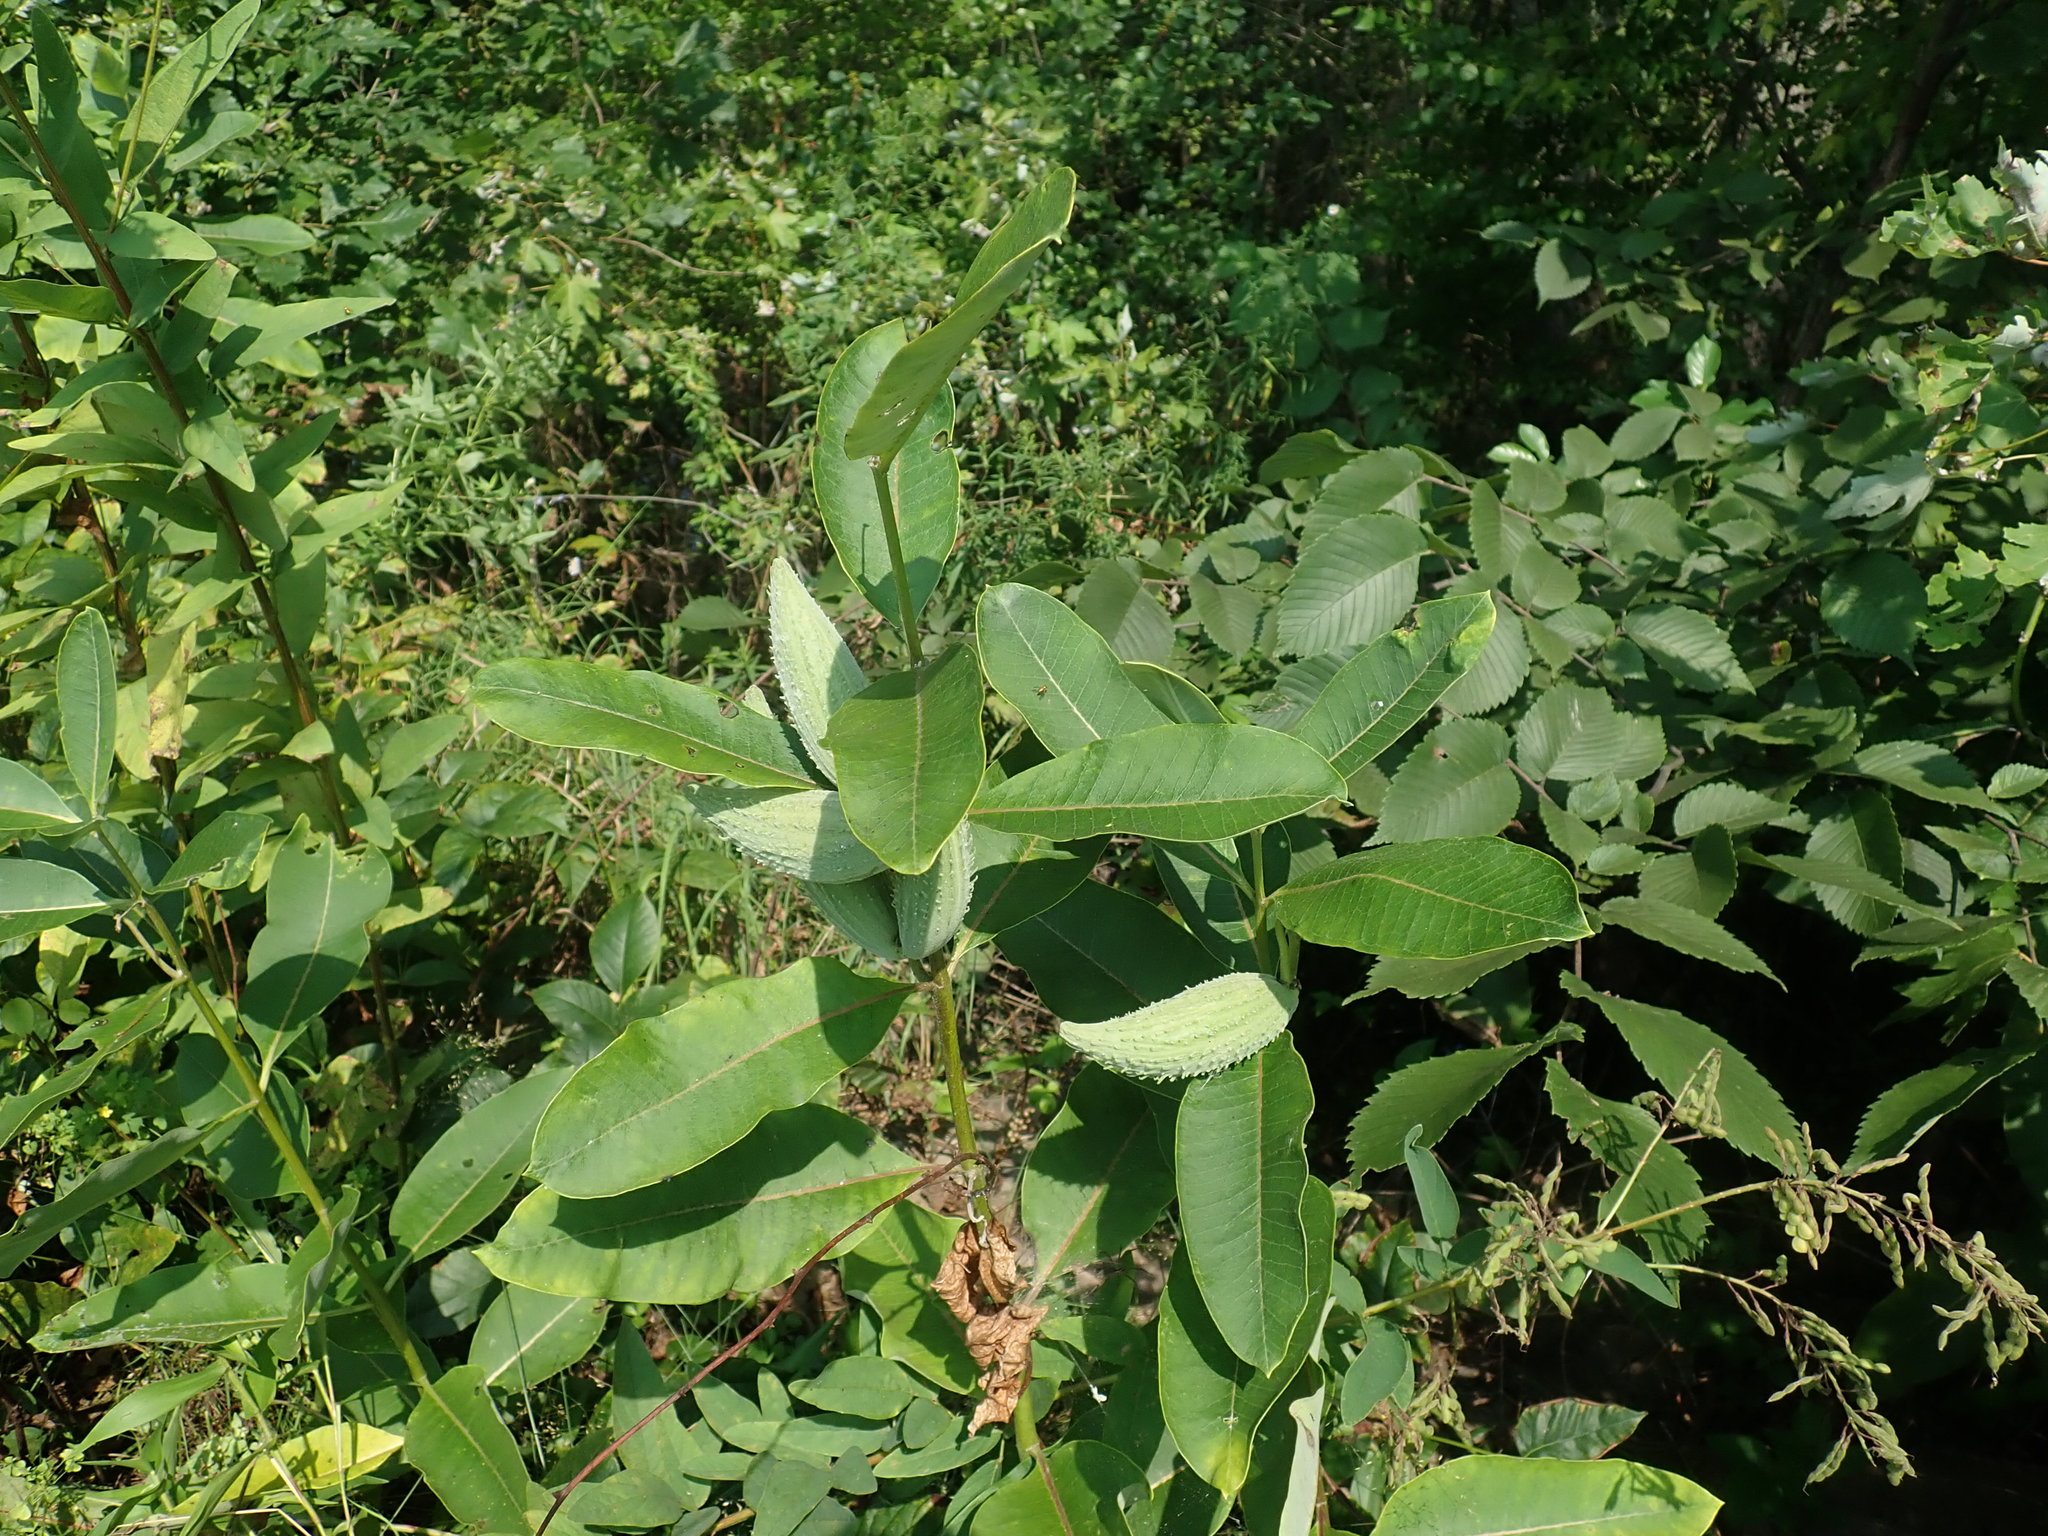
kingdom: Plantae
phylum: Tracheophyta
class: Magnoliopsida
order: Gentianales
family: Apocynaceae
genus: Asclepias
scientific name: Asclepias syriaca
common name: Common milkweed
